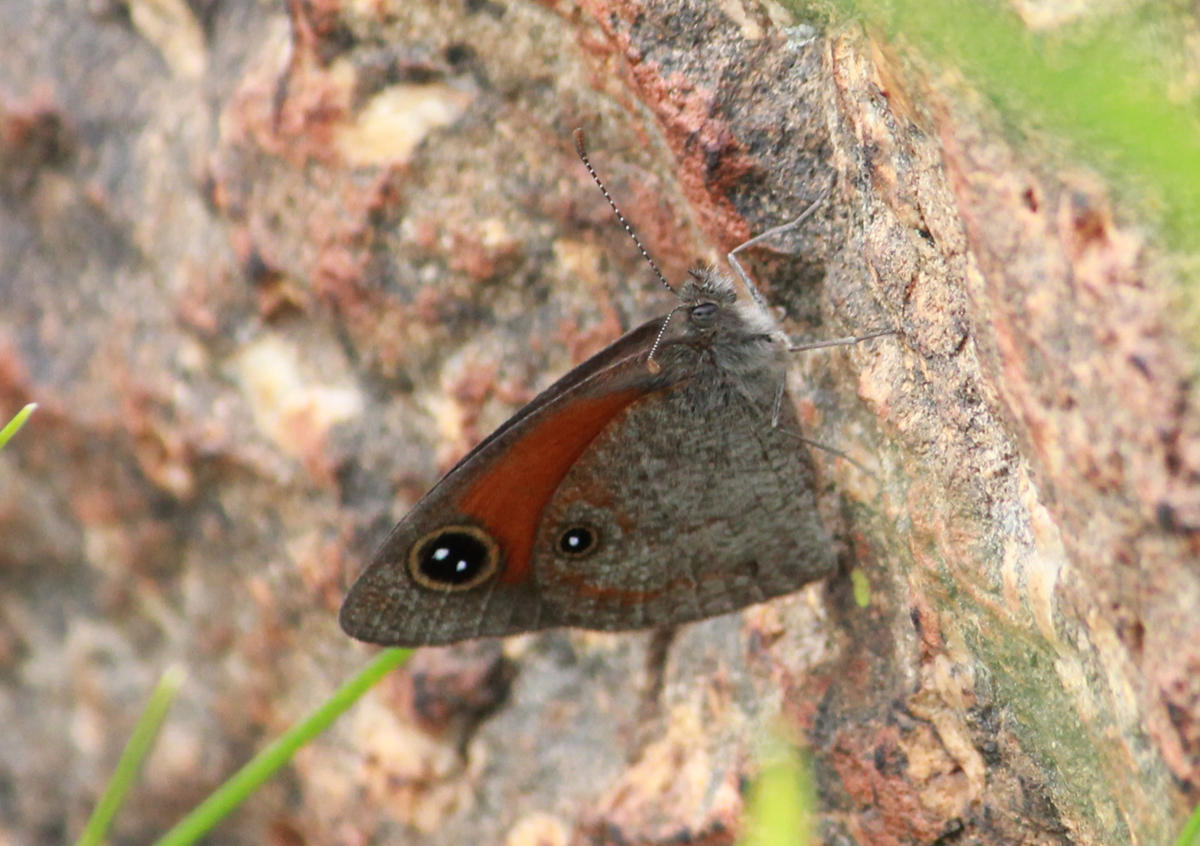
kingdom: Animalia
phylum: Arthropoda
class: Insecta
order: Lepidoptera
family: Nymphalidae
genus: Stygionympha
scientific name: Stygionympha wichgrafi
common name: Wichgraf’s hillside brown
